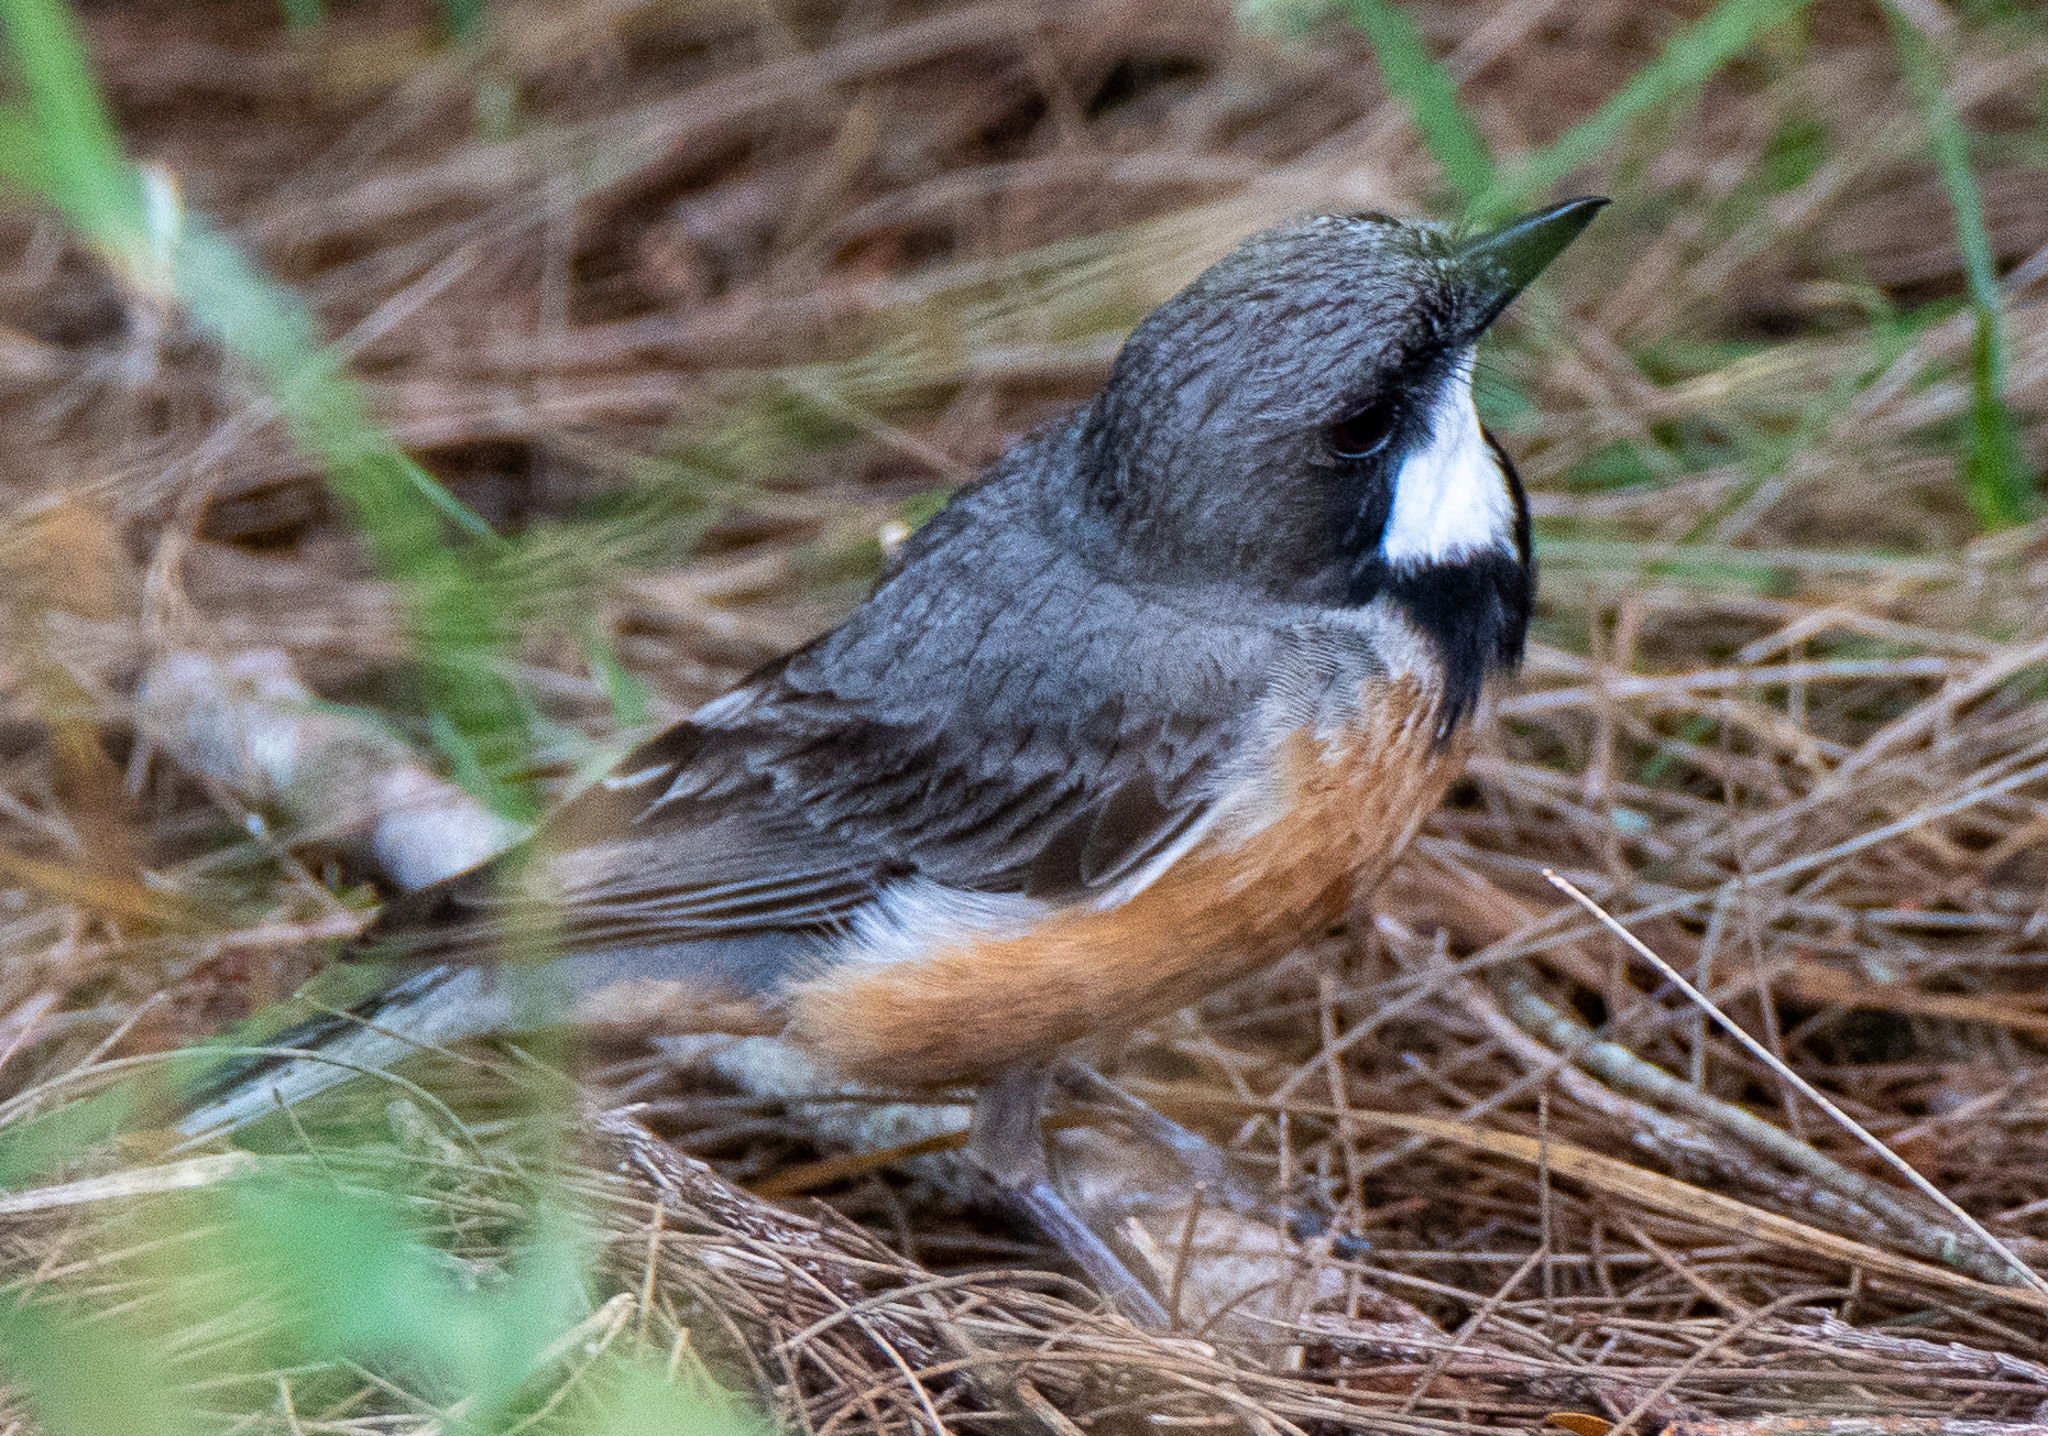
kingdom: Animalia
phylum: Chordata
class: Aves
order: Passeriformes
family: Pachycephalidae
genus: Pachycephala
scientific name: Pachycephala rufiventris
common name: Rufous whistler
